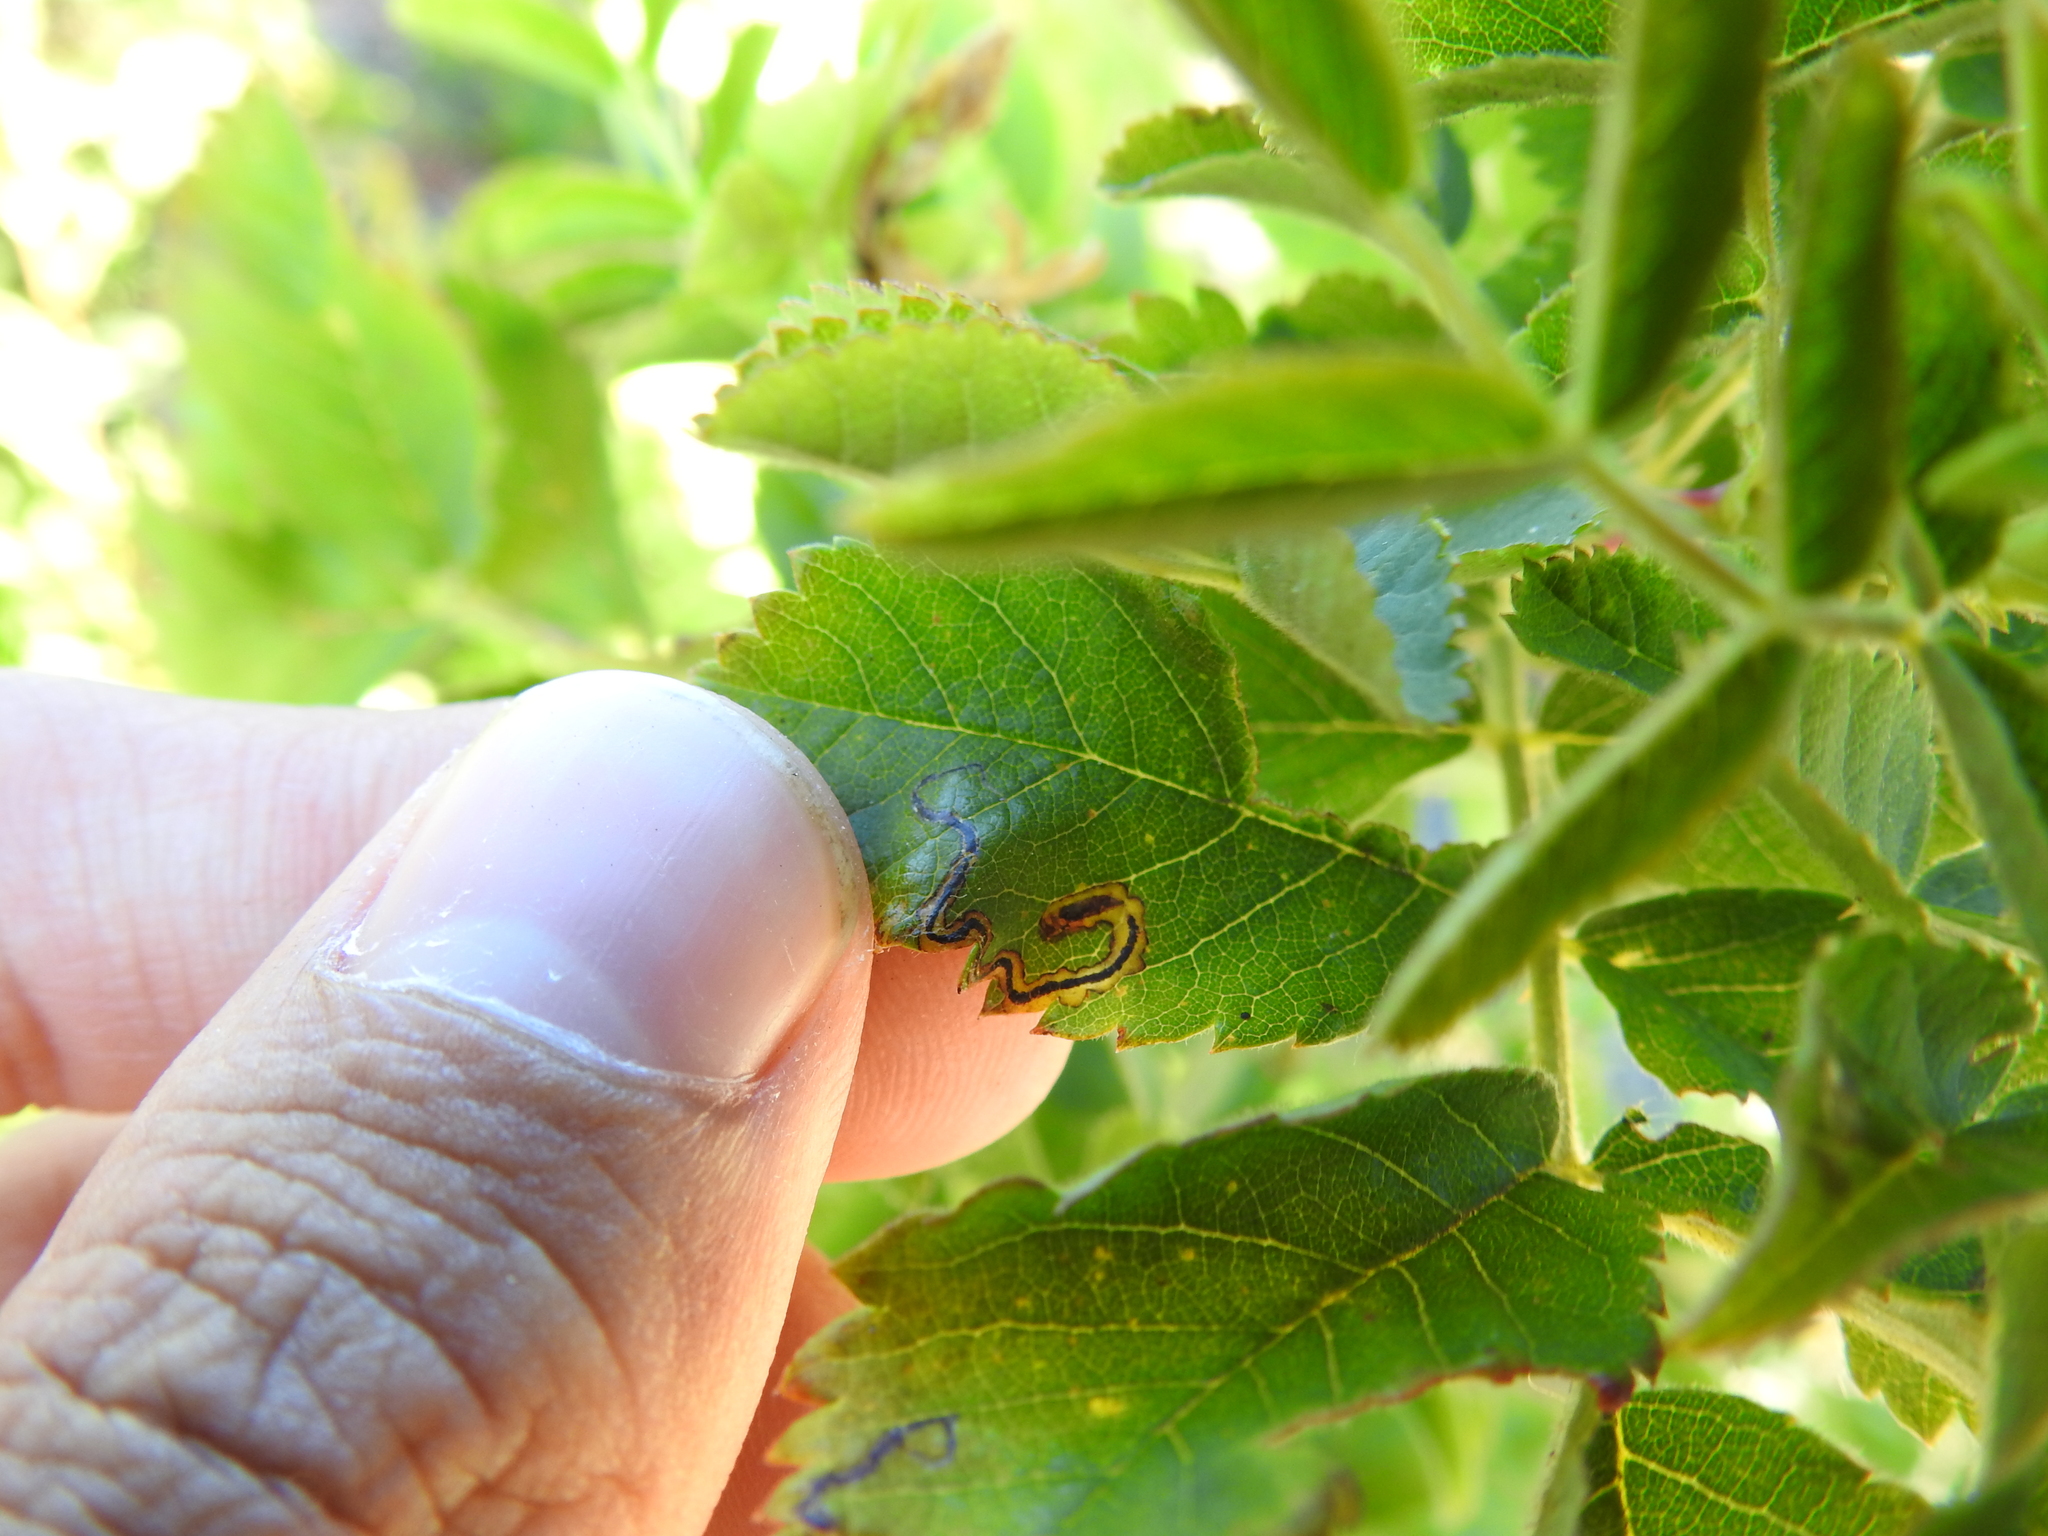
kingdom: Animalia
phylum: Arthropoda
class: Insecta
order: Lepidoptera
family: Nepticulidae
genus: Stigmella
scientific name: Stigmella centifoliella
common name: Narrow-barred pigmy
